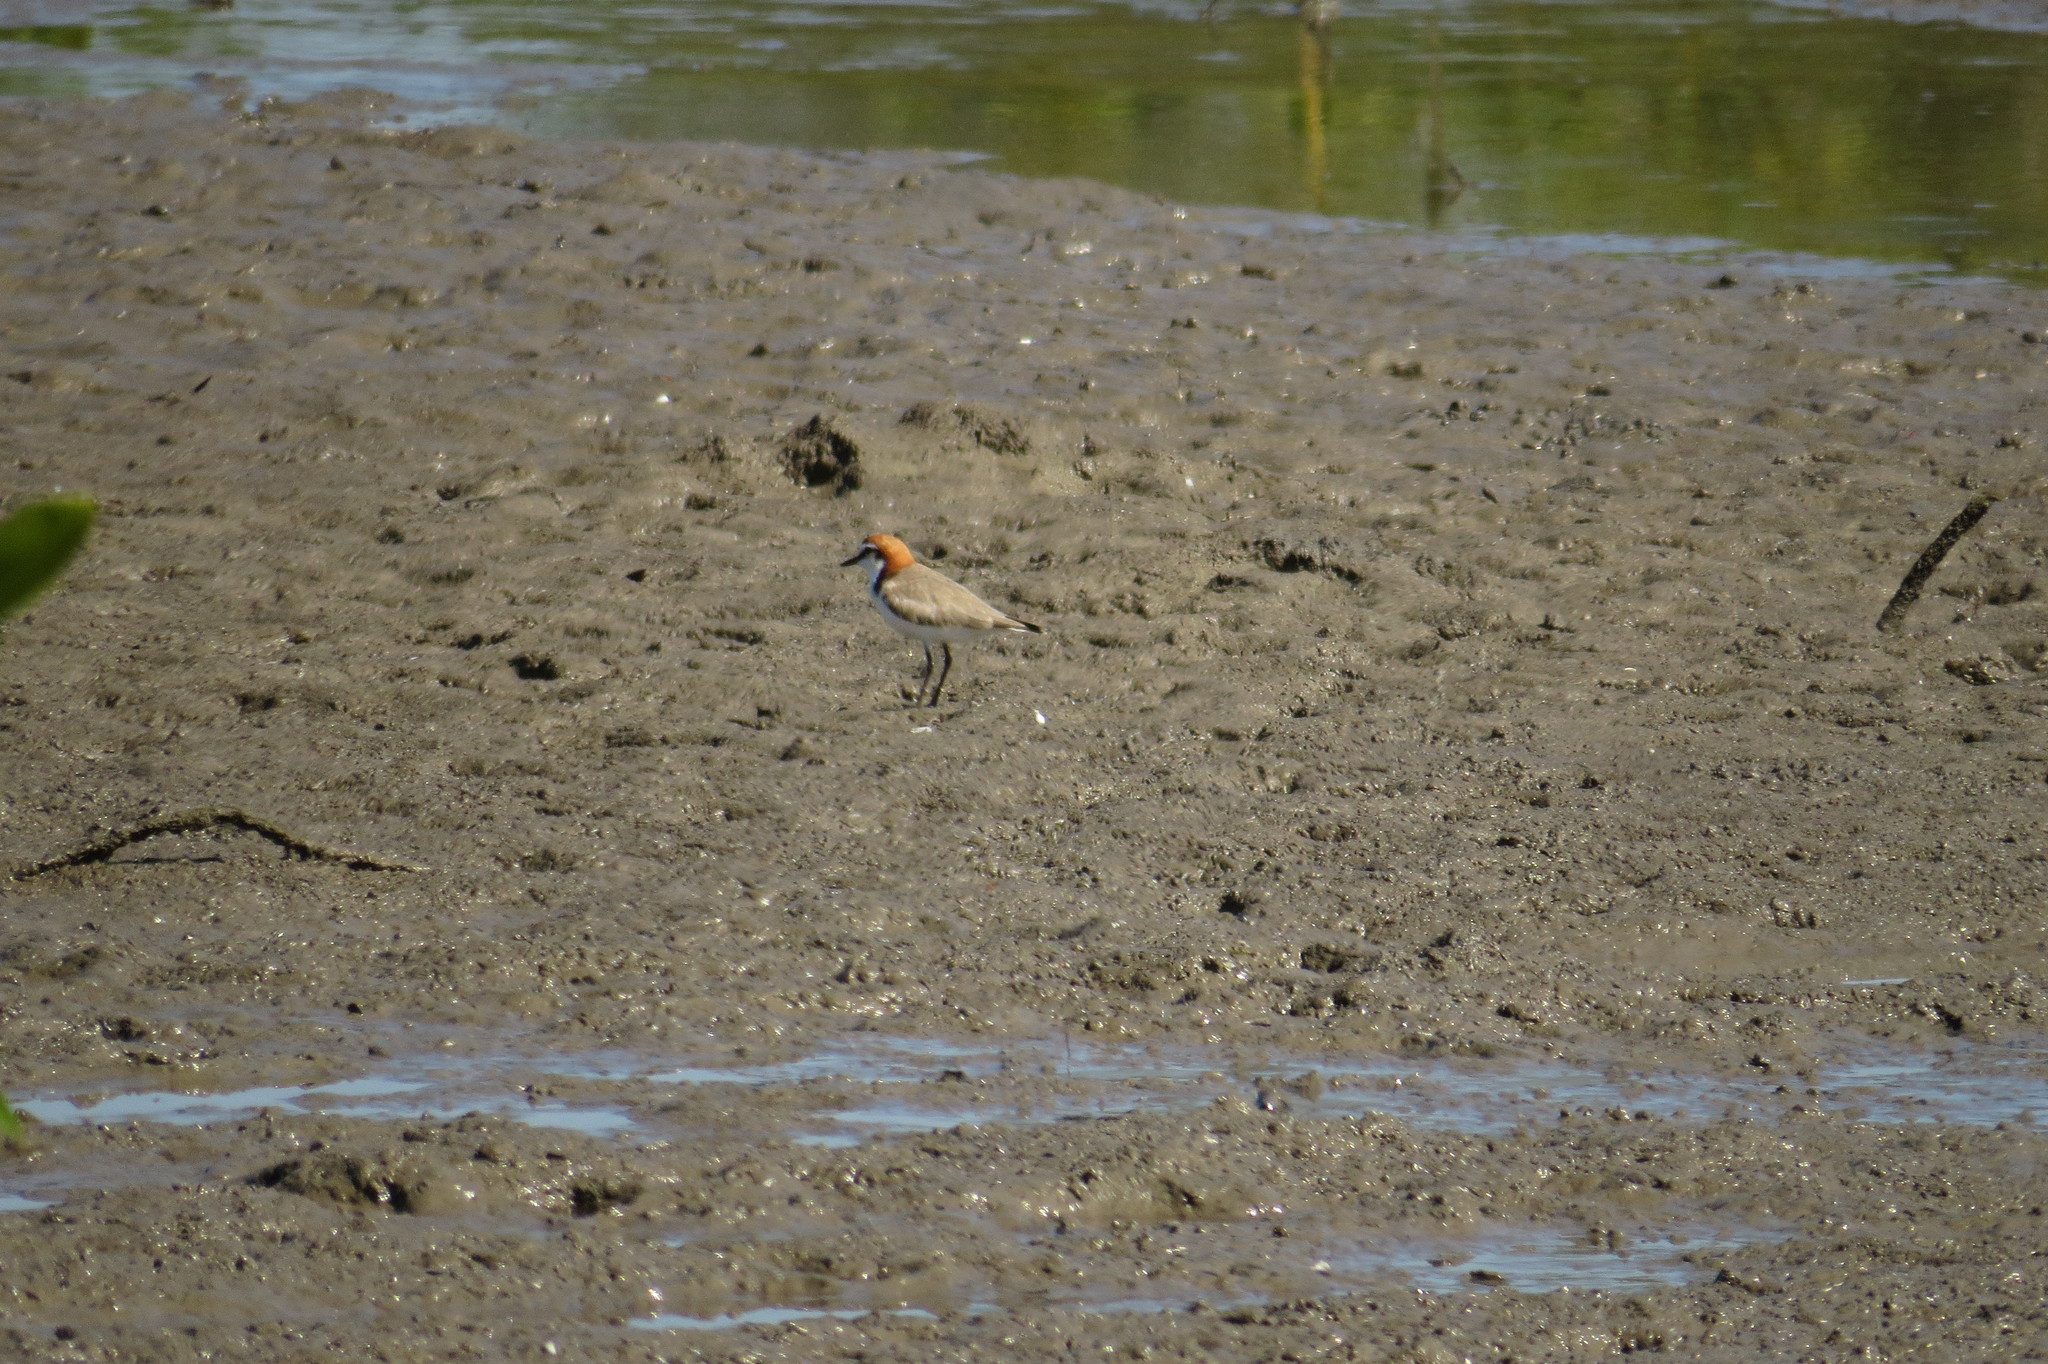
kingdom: Animalia
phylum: Chordata
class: Aves
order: Charadriiformes
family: Charadriidae
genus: Anarhynchus
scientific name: Anarhynchus
